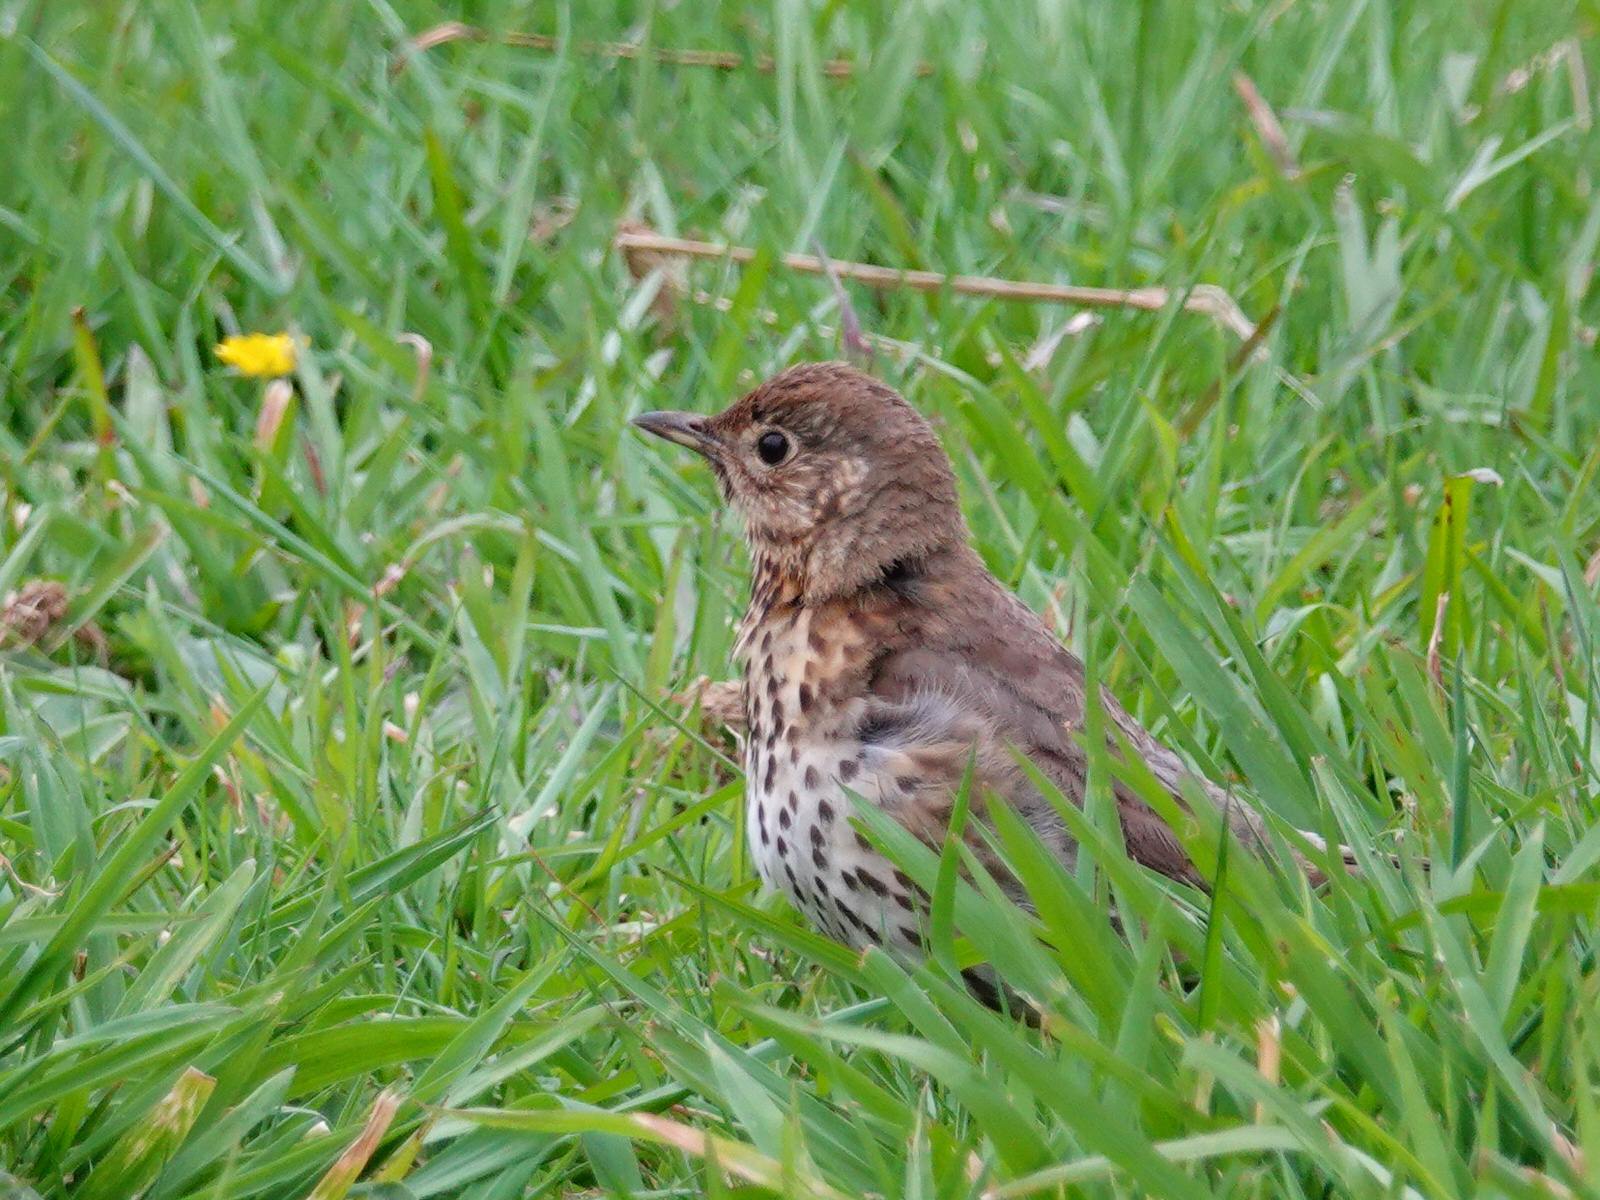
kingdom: Animalia
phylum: Chordata
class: Aves
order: Passeriformes
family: Turdidae
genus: Turdus
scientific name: Turdus philomelos
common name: Song thrush
